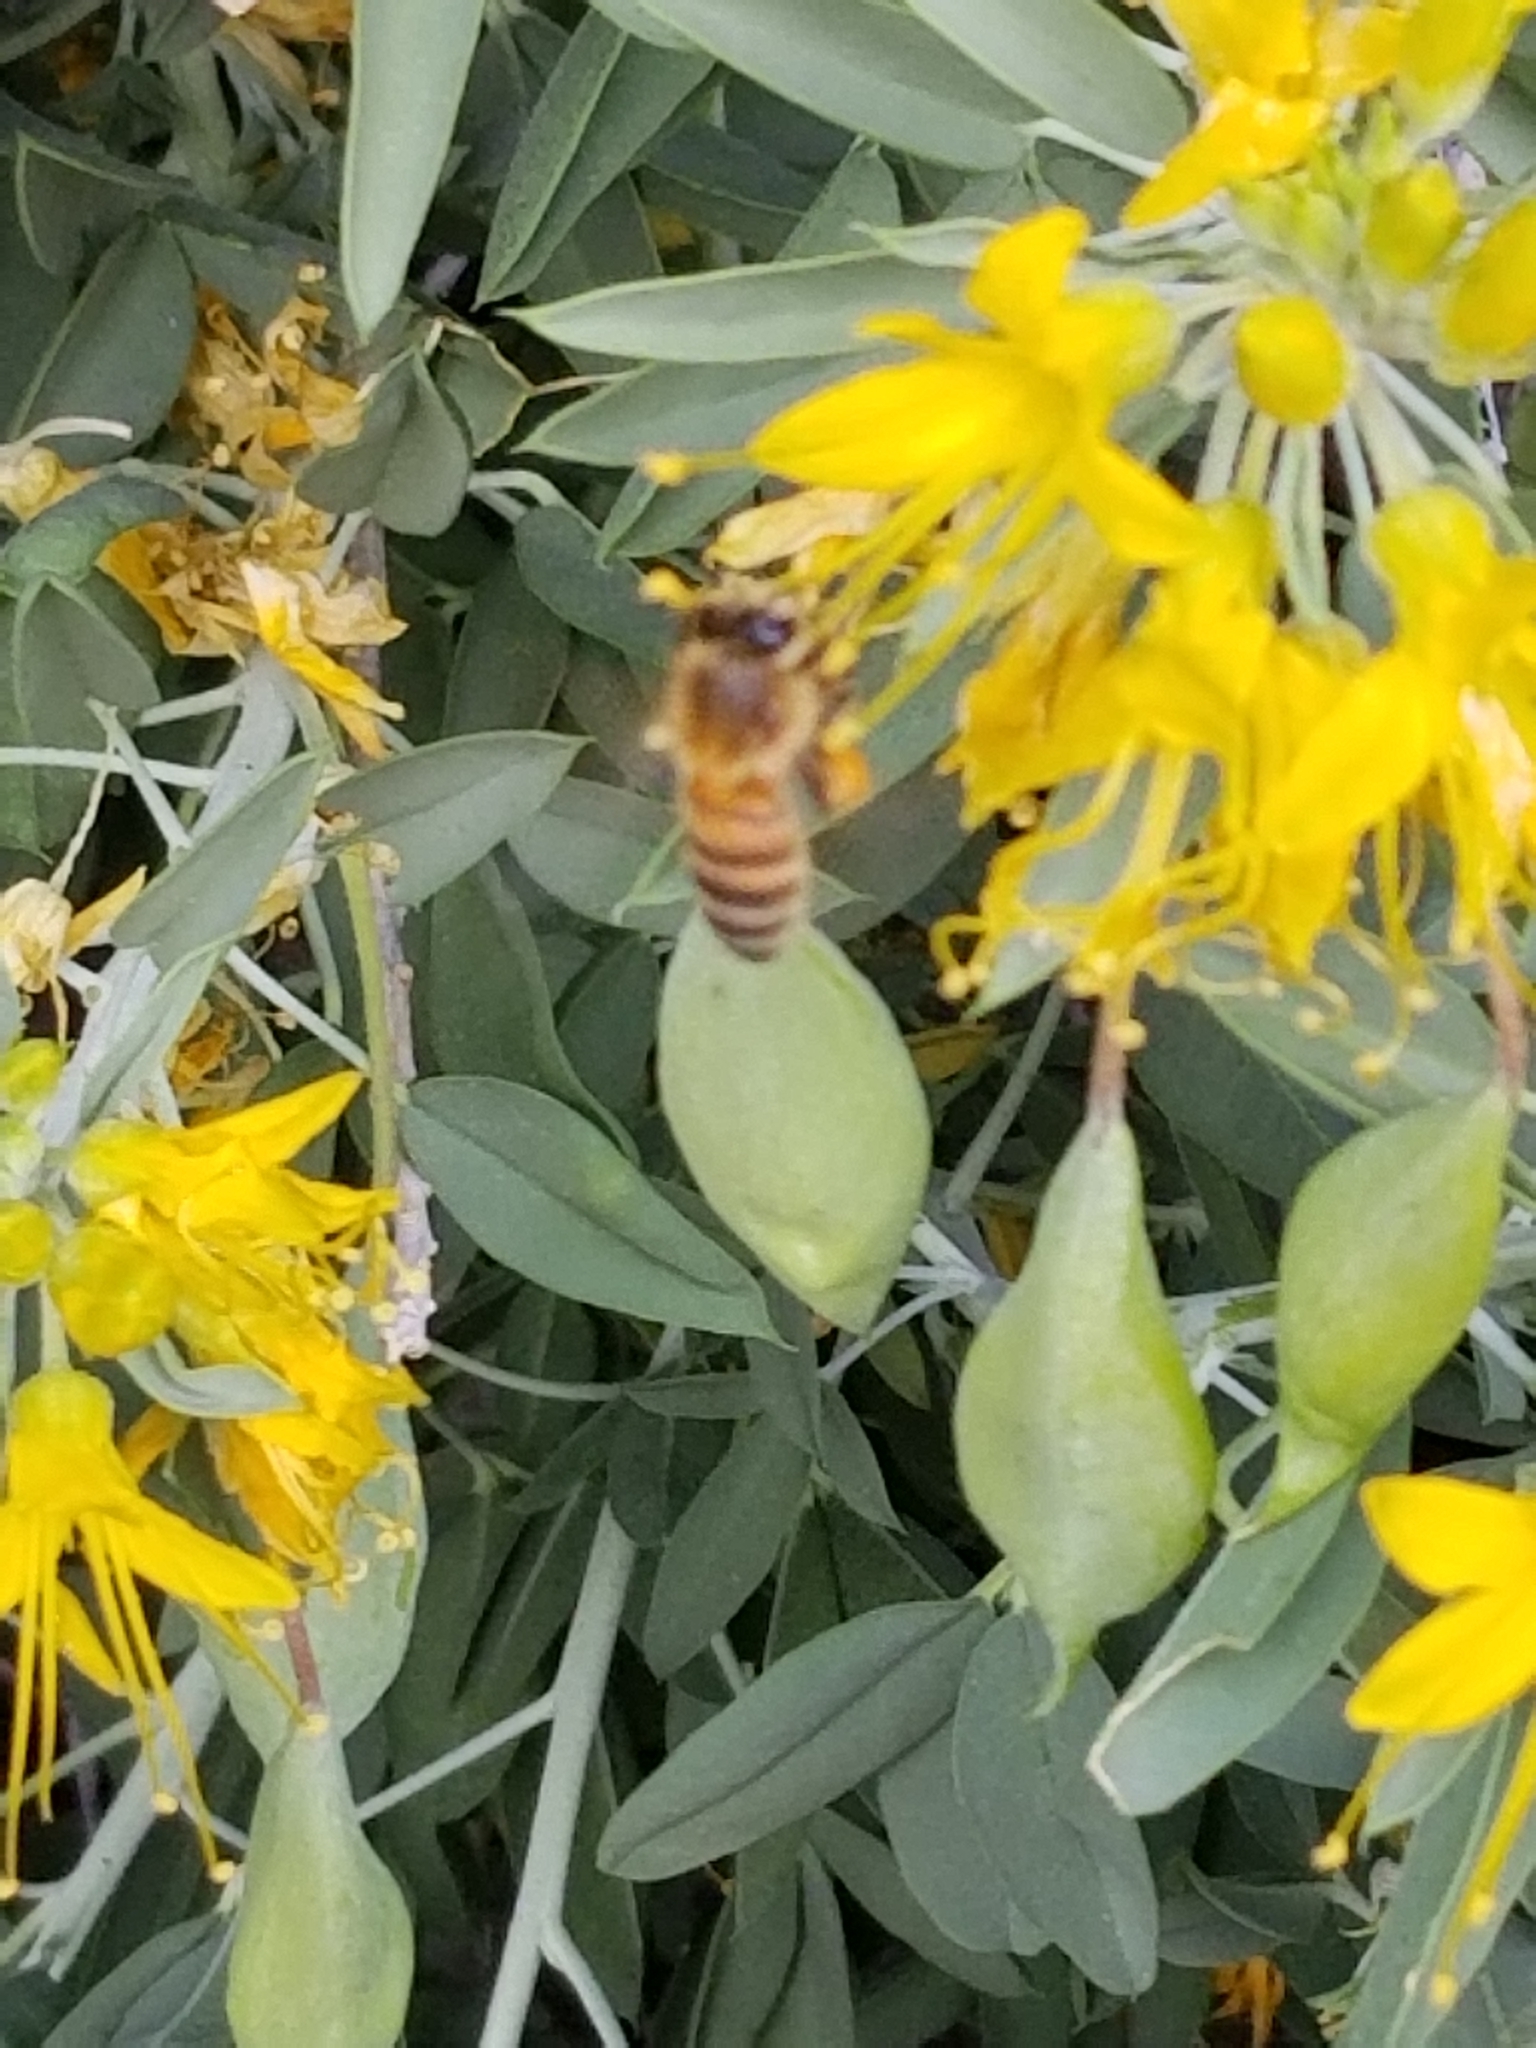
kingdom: Animalia
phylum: Arthropoda
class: Insecta
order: Hymenoptera
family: Apidae
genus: Apis
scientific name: Apis mellifera
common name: Honey bee
